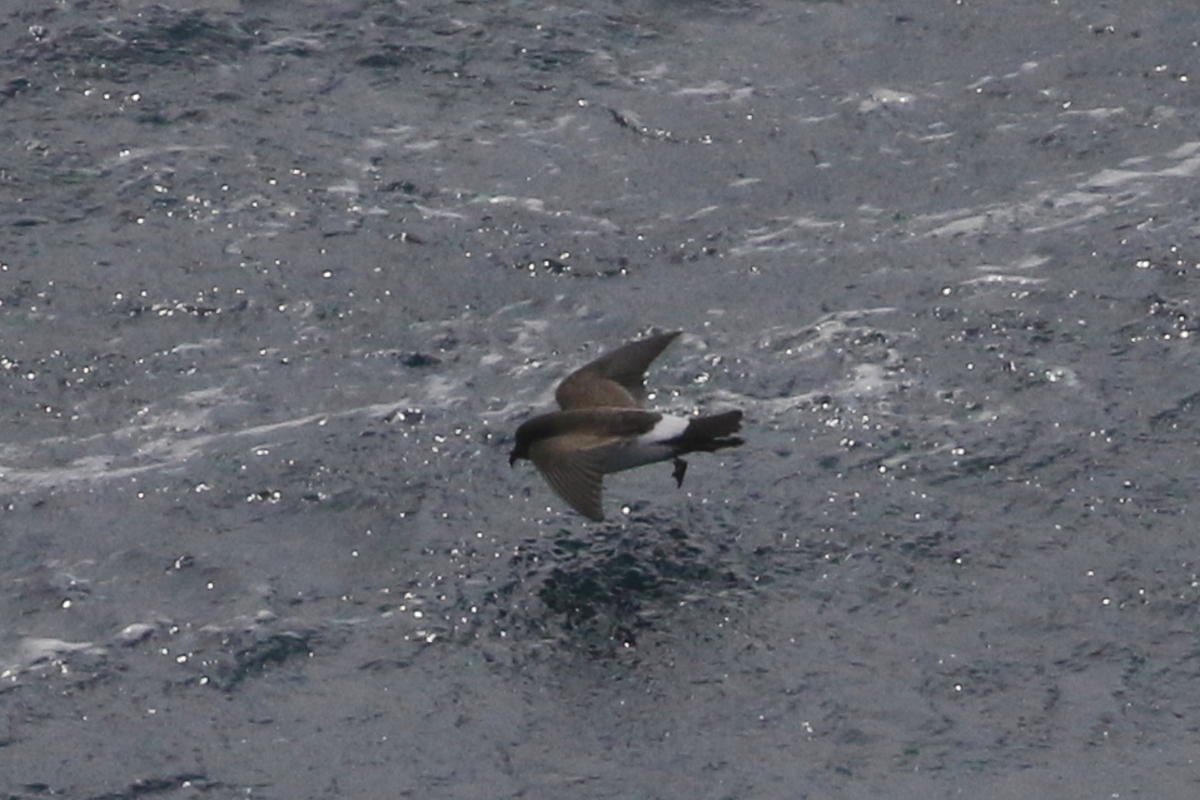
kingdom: Animalia
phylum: Chordata
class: Aves
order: Procellariiformes
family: Hydrobatidae
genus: Fregetta
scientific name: Fregetta tropica
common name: Black-bellied storm-petrel
